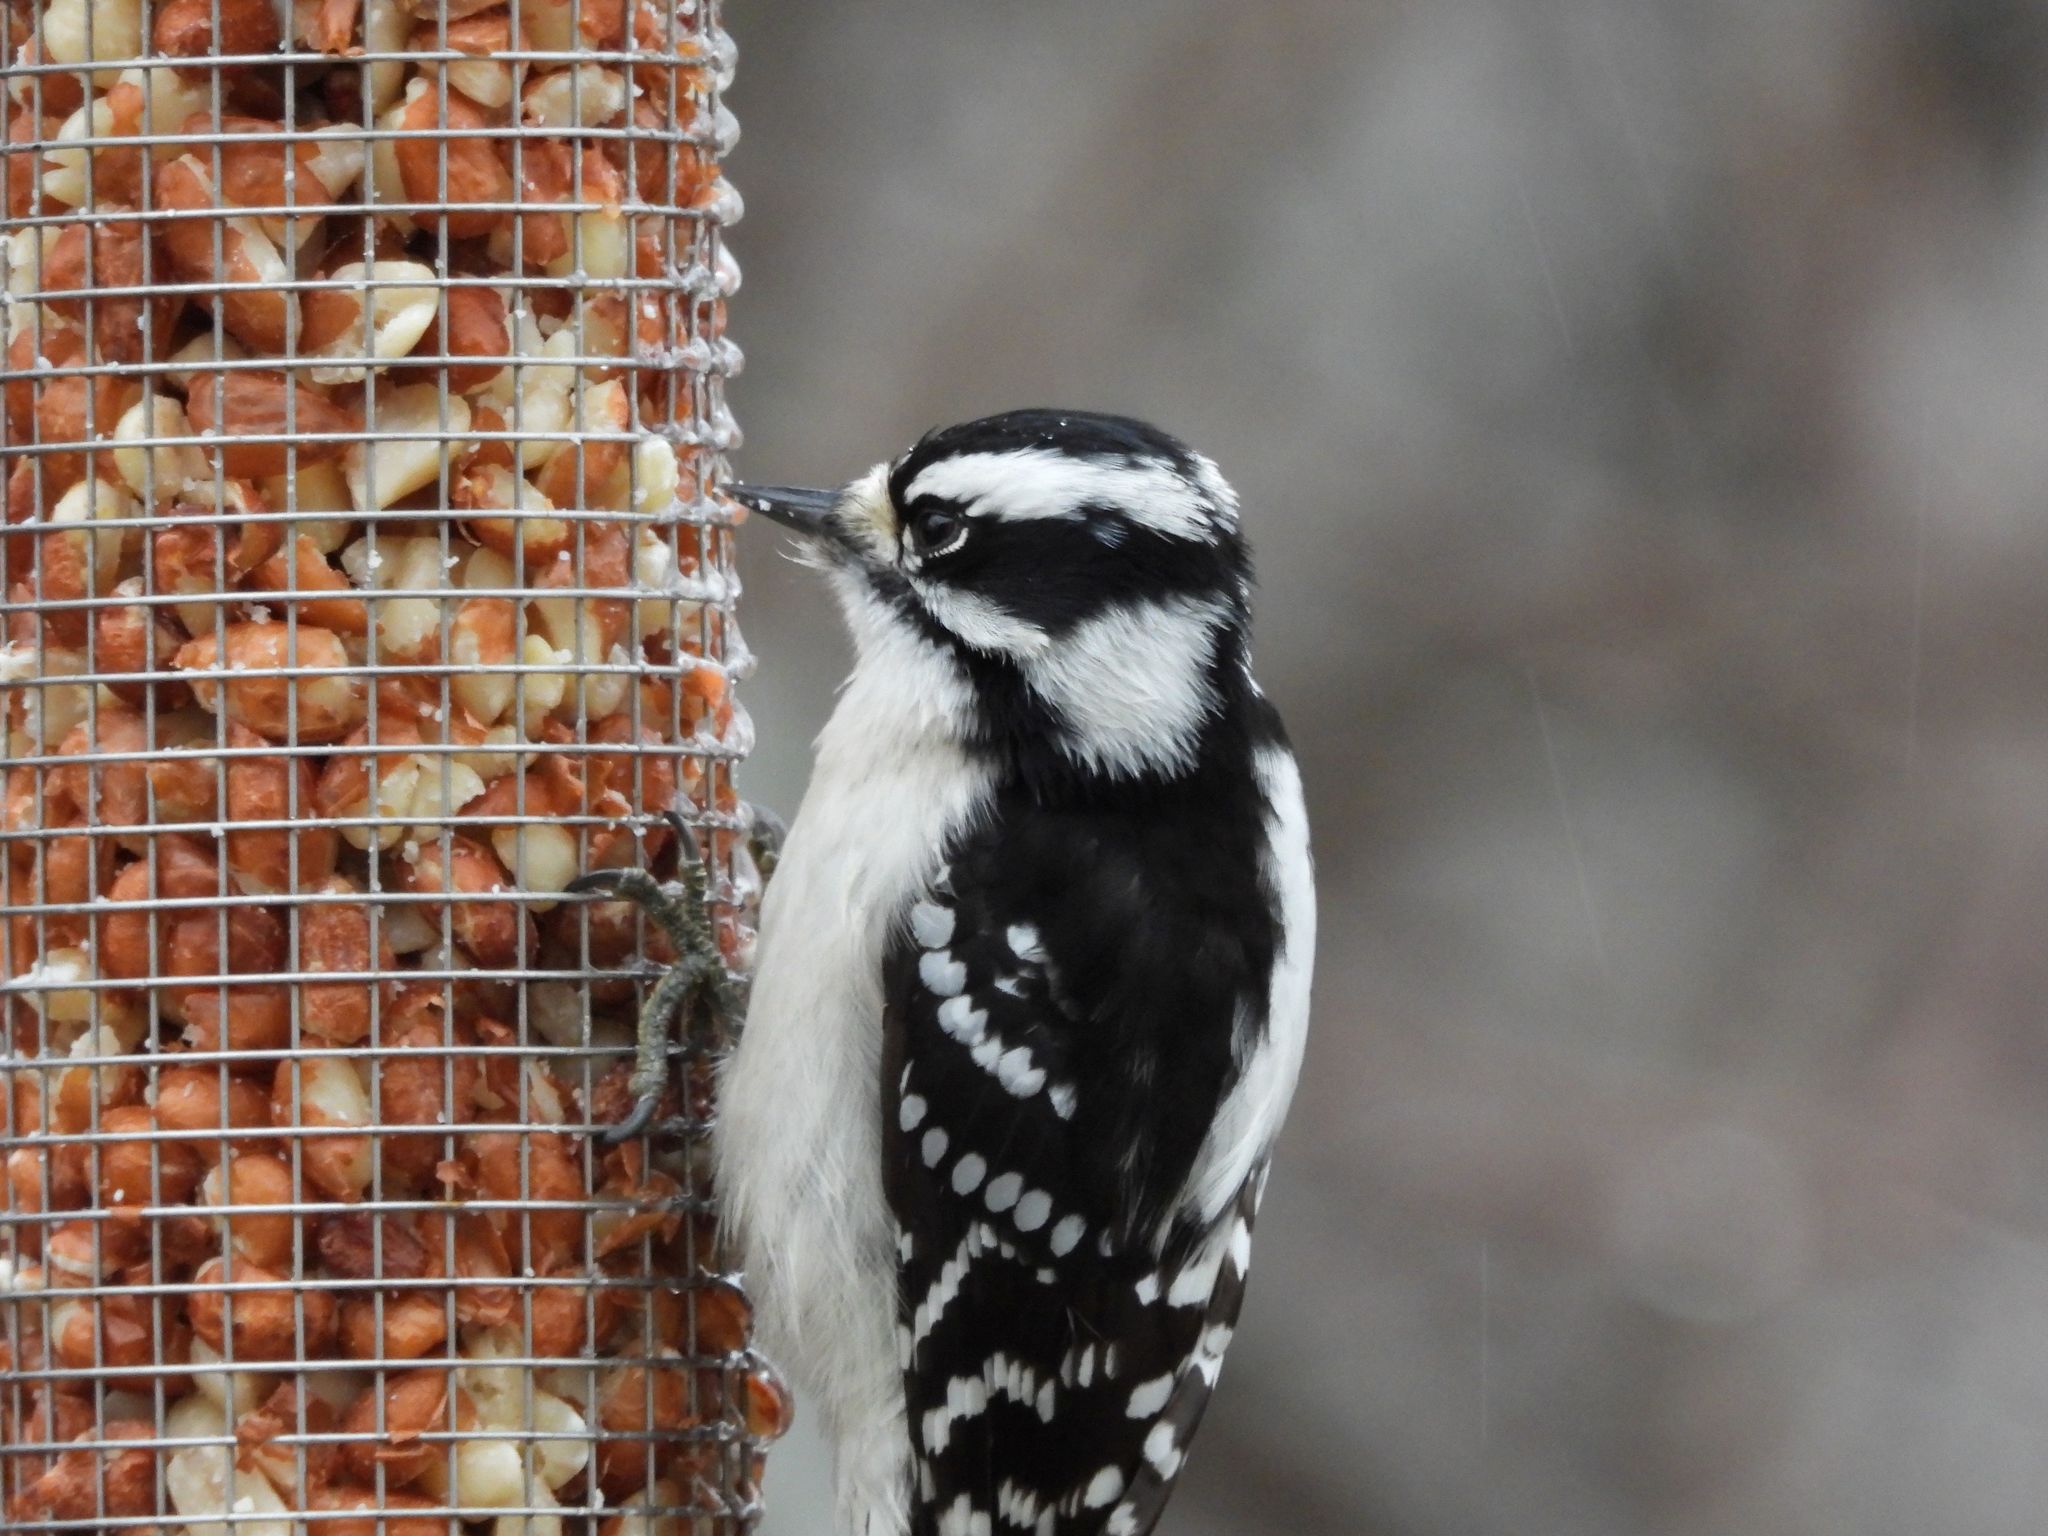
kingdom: Animalia
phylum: Chordata
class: Aves
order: Piciformes
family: Picidae
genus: Dryobates
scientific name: Dryobates pubescens
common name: Downy woodpecker
